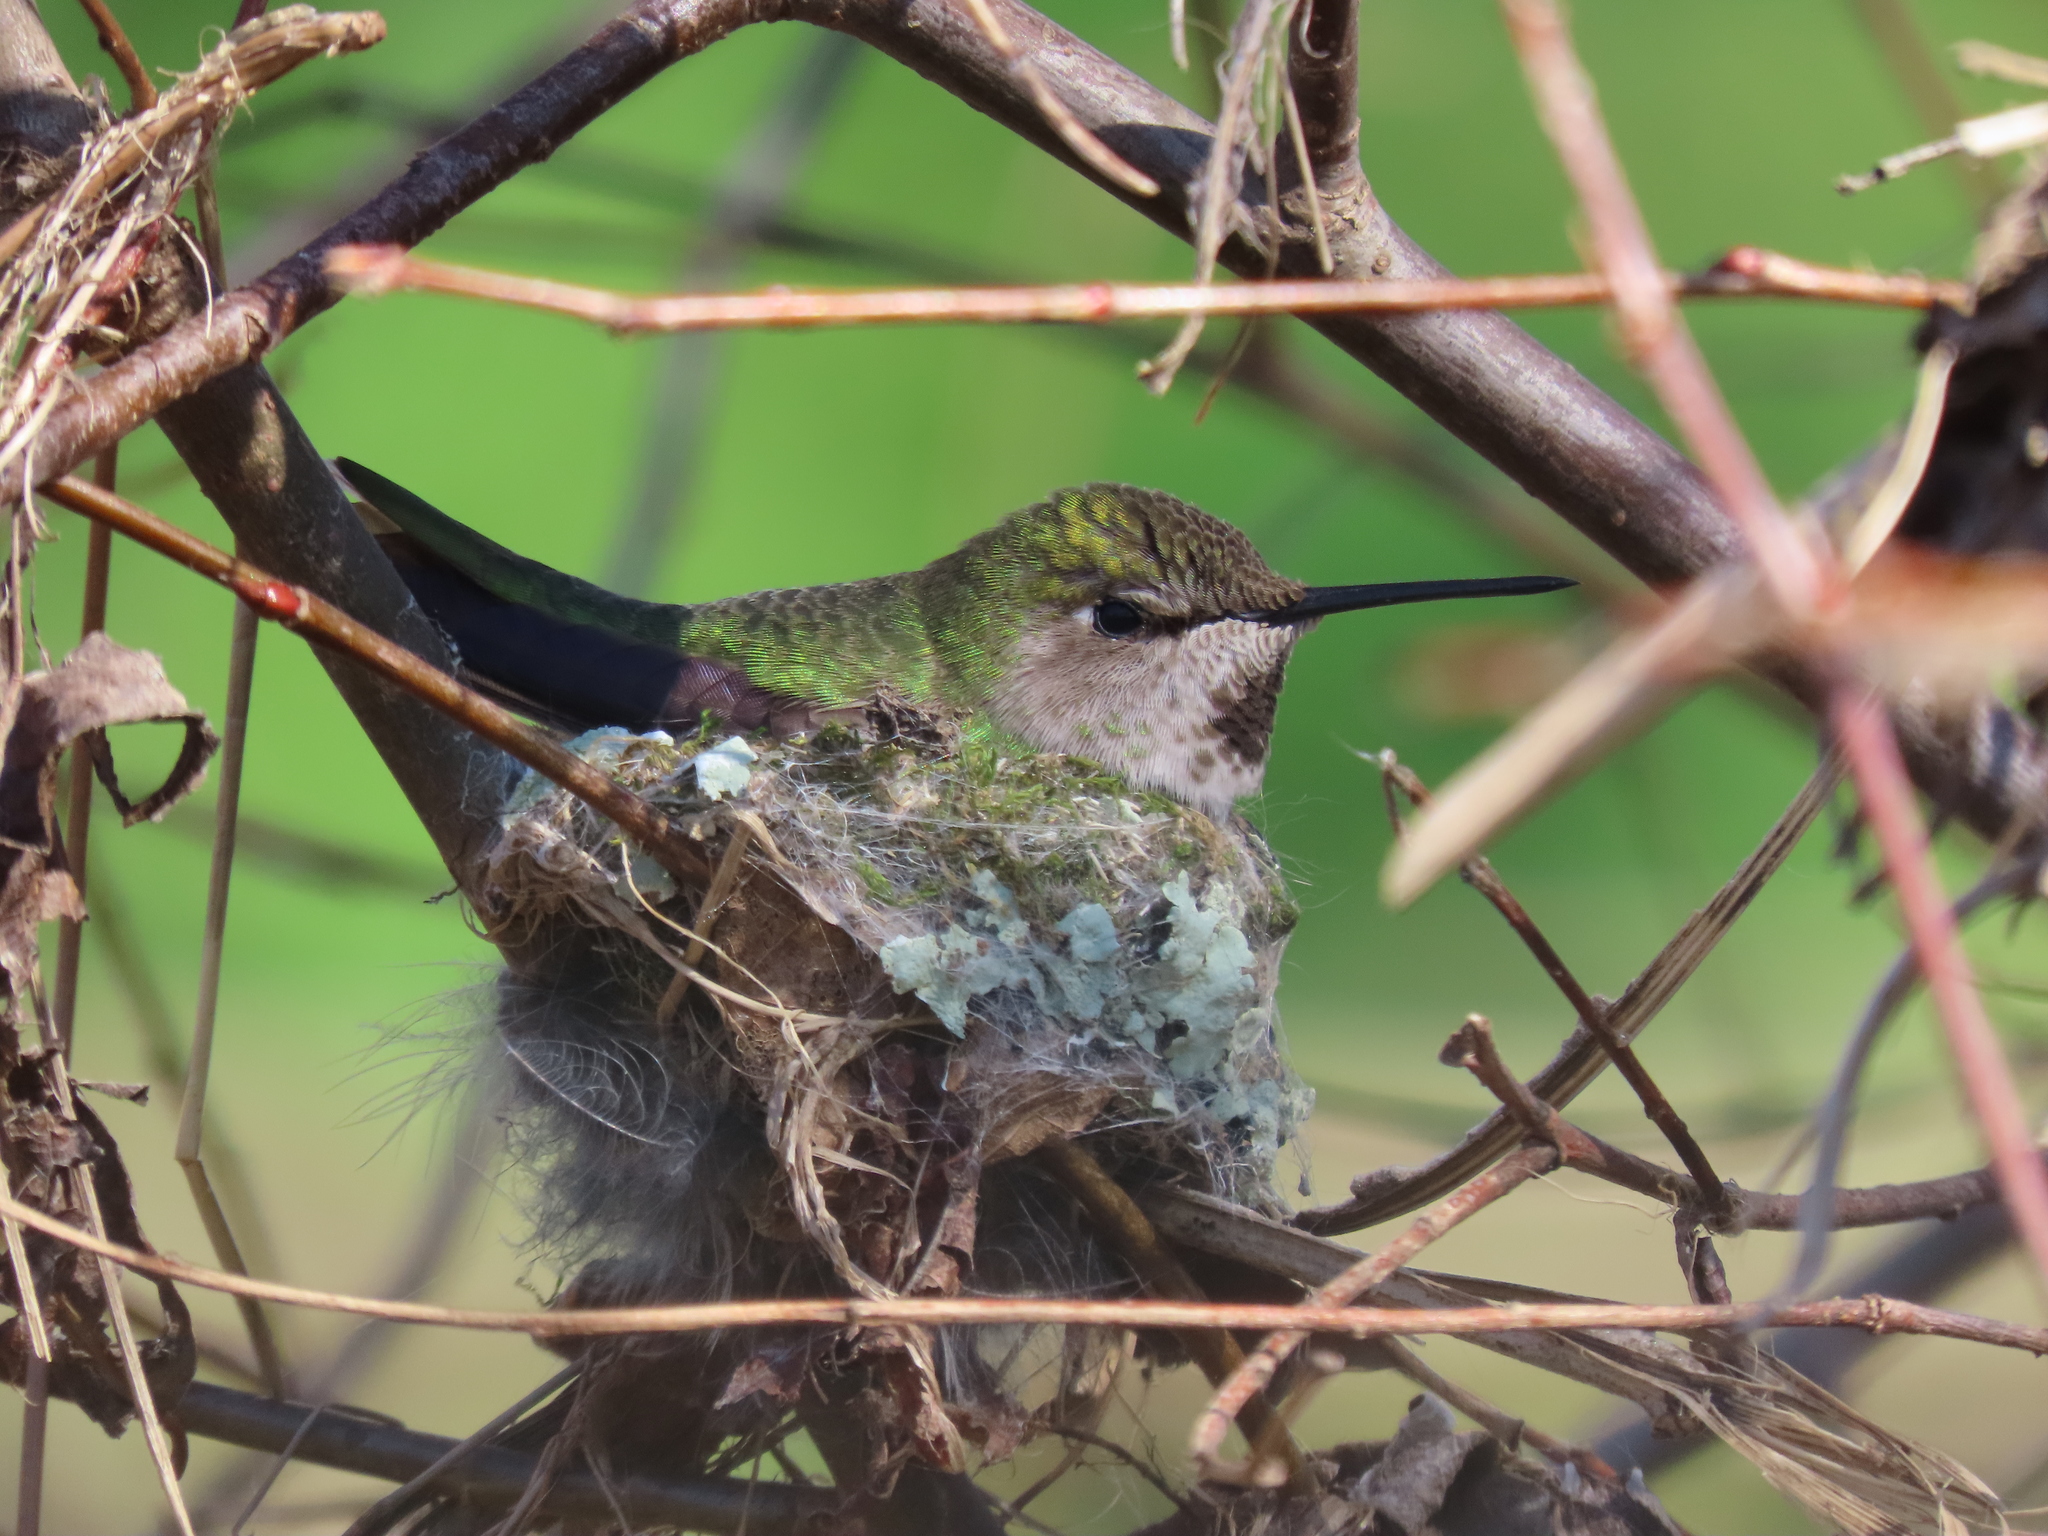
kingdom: Animalia
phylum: Chordata
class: Aves
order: Apodiformes
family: Trochilidae
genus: Calypte
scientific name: Calypte anna
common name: Anna's hummingbird
